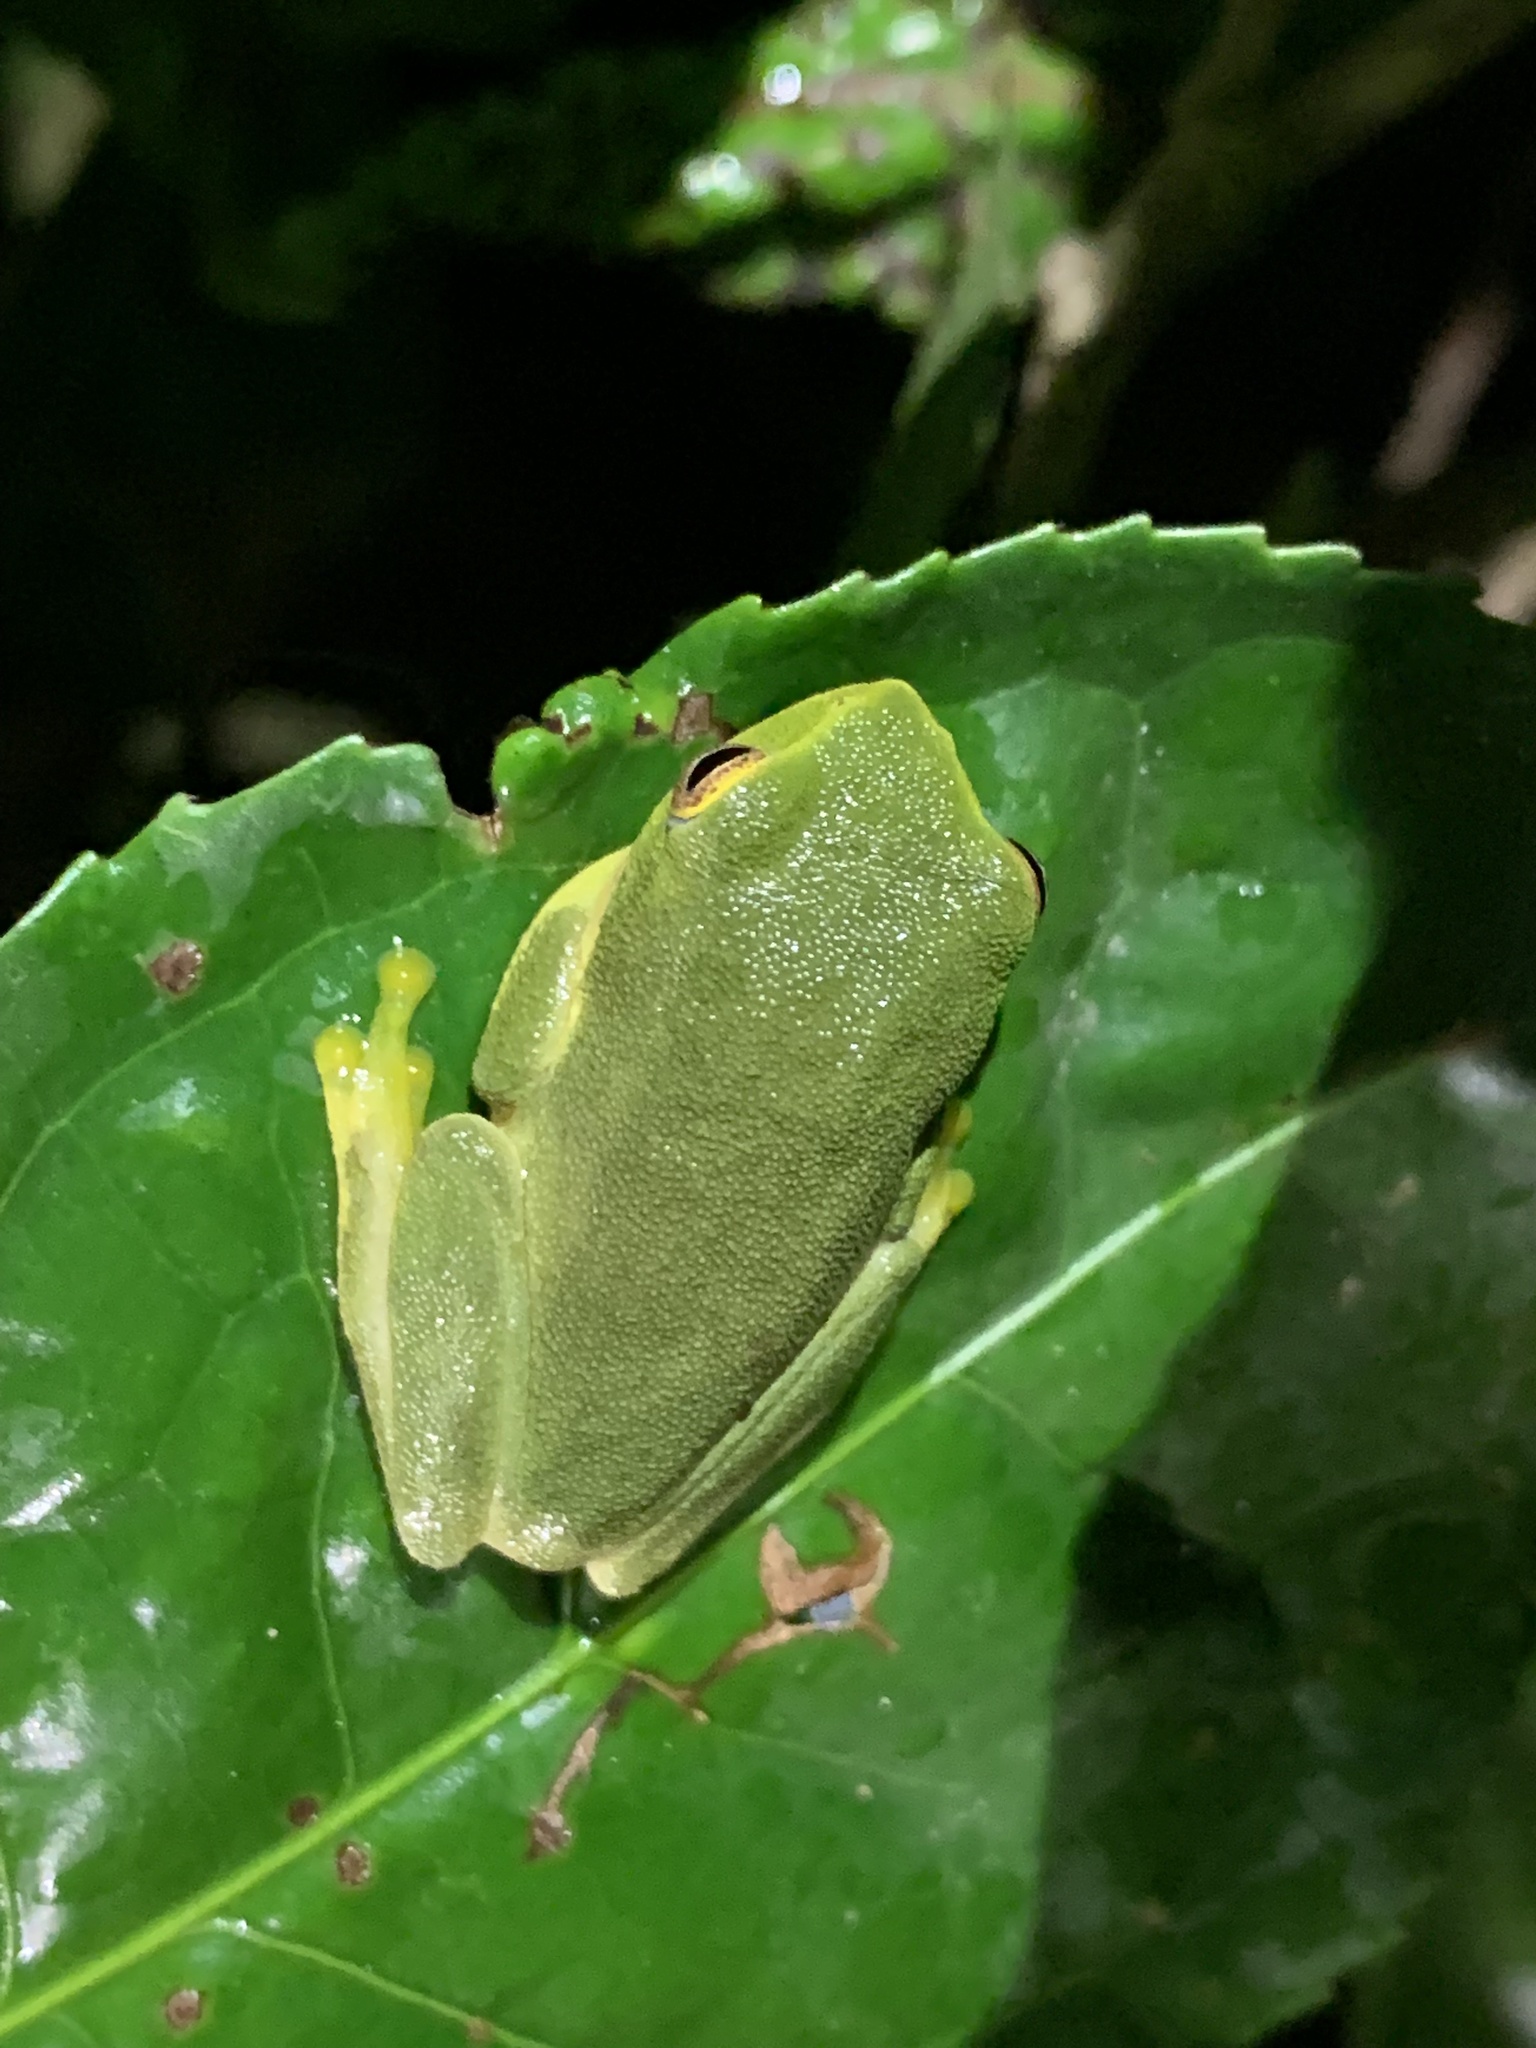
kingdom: Animalia
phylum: Chordata
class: Amphibia
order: Anura
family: Rhacophoridae
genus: Raorchestes
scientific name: Raorchestes jayarami
